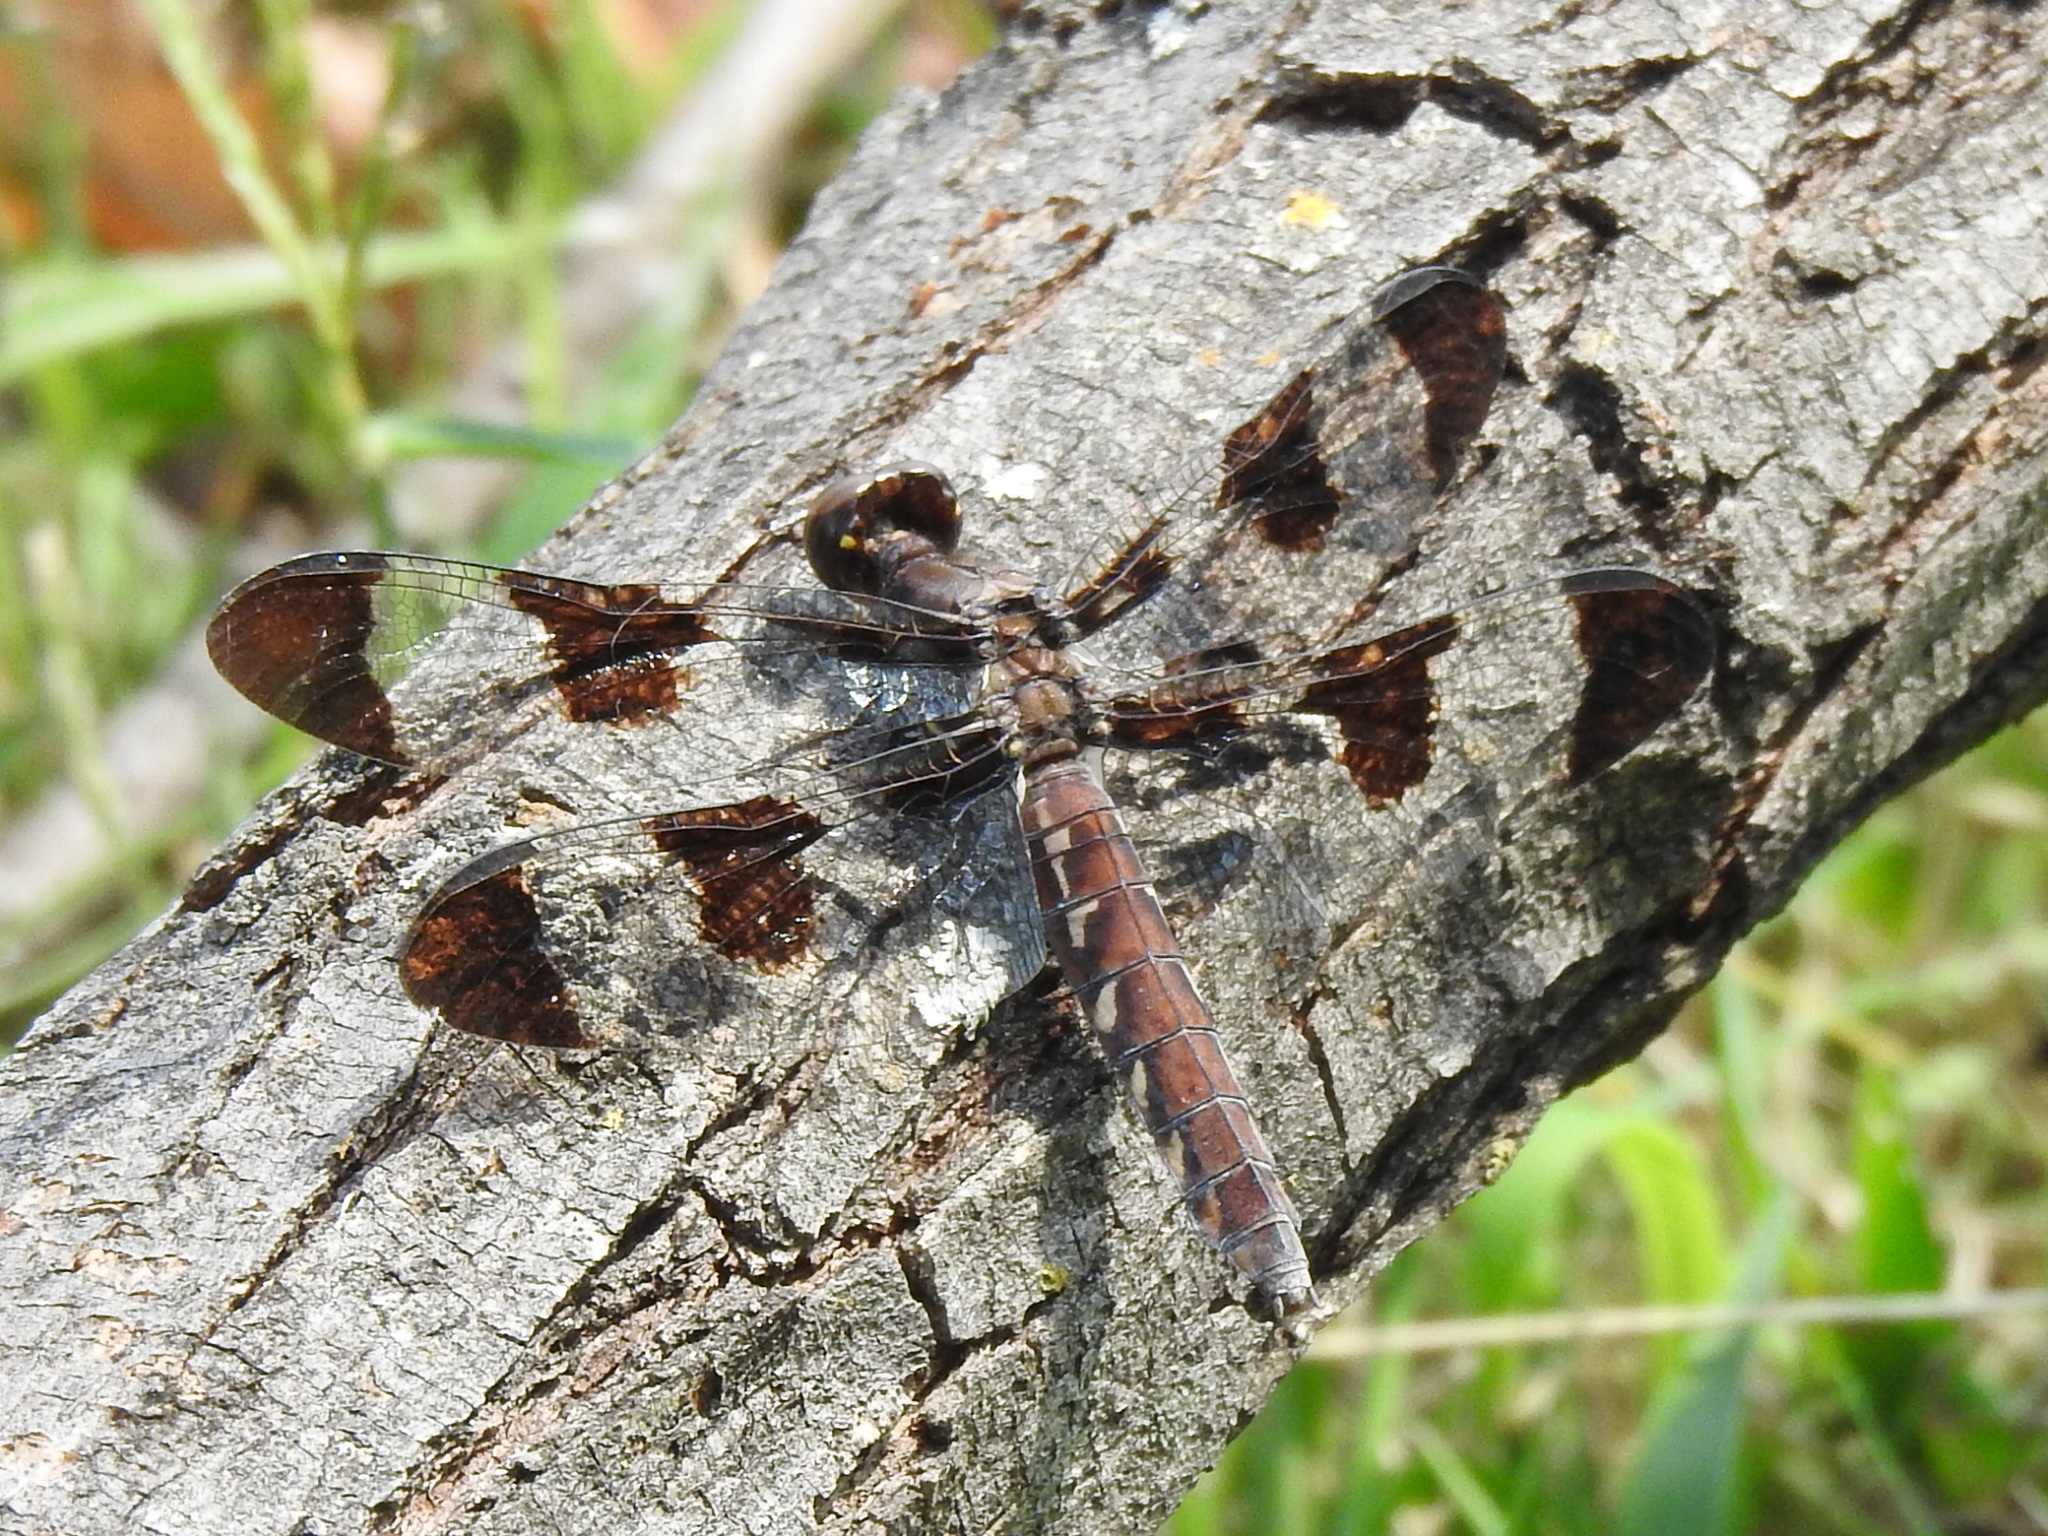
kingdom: Animalia
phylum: Arthropoda
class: Insecta
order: Odonata
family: Libellulidae
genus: Plathemis
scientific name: Plathemis lydia
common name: Common whitetail
